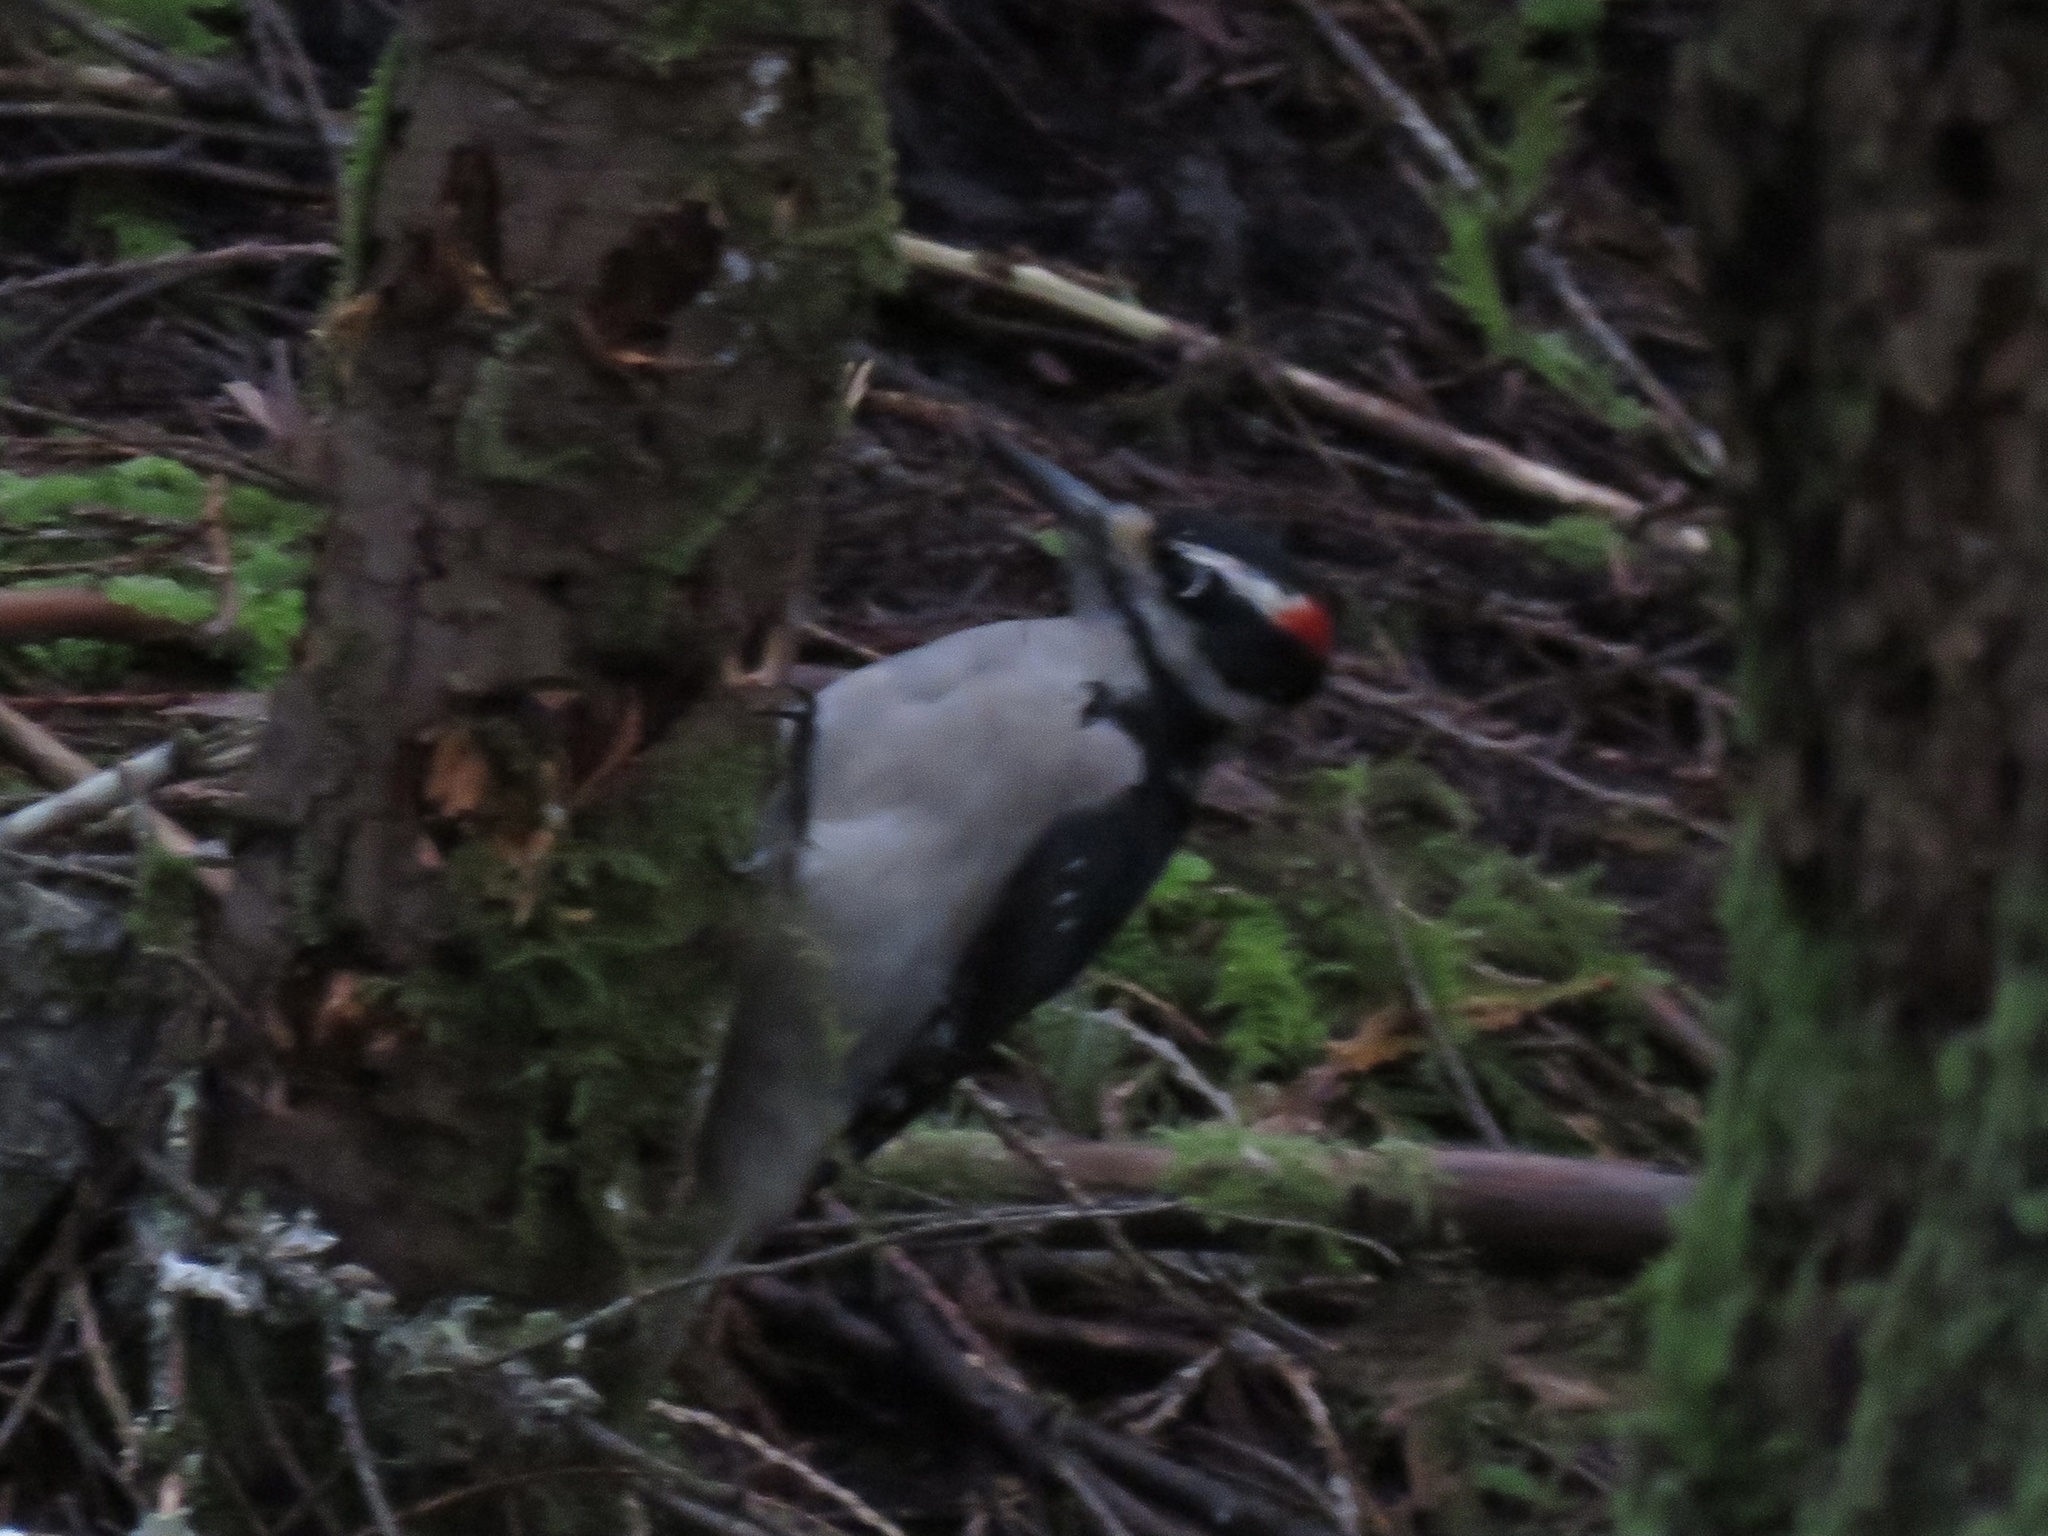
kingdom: Animalia
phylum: Chordata
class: Aves
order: Piciformes
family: Picidae
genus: Leuconotopicus
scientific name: Leuconotopicus villosus
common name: Hairy woodpecker
